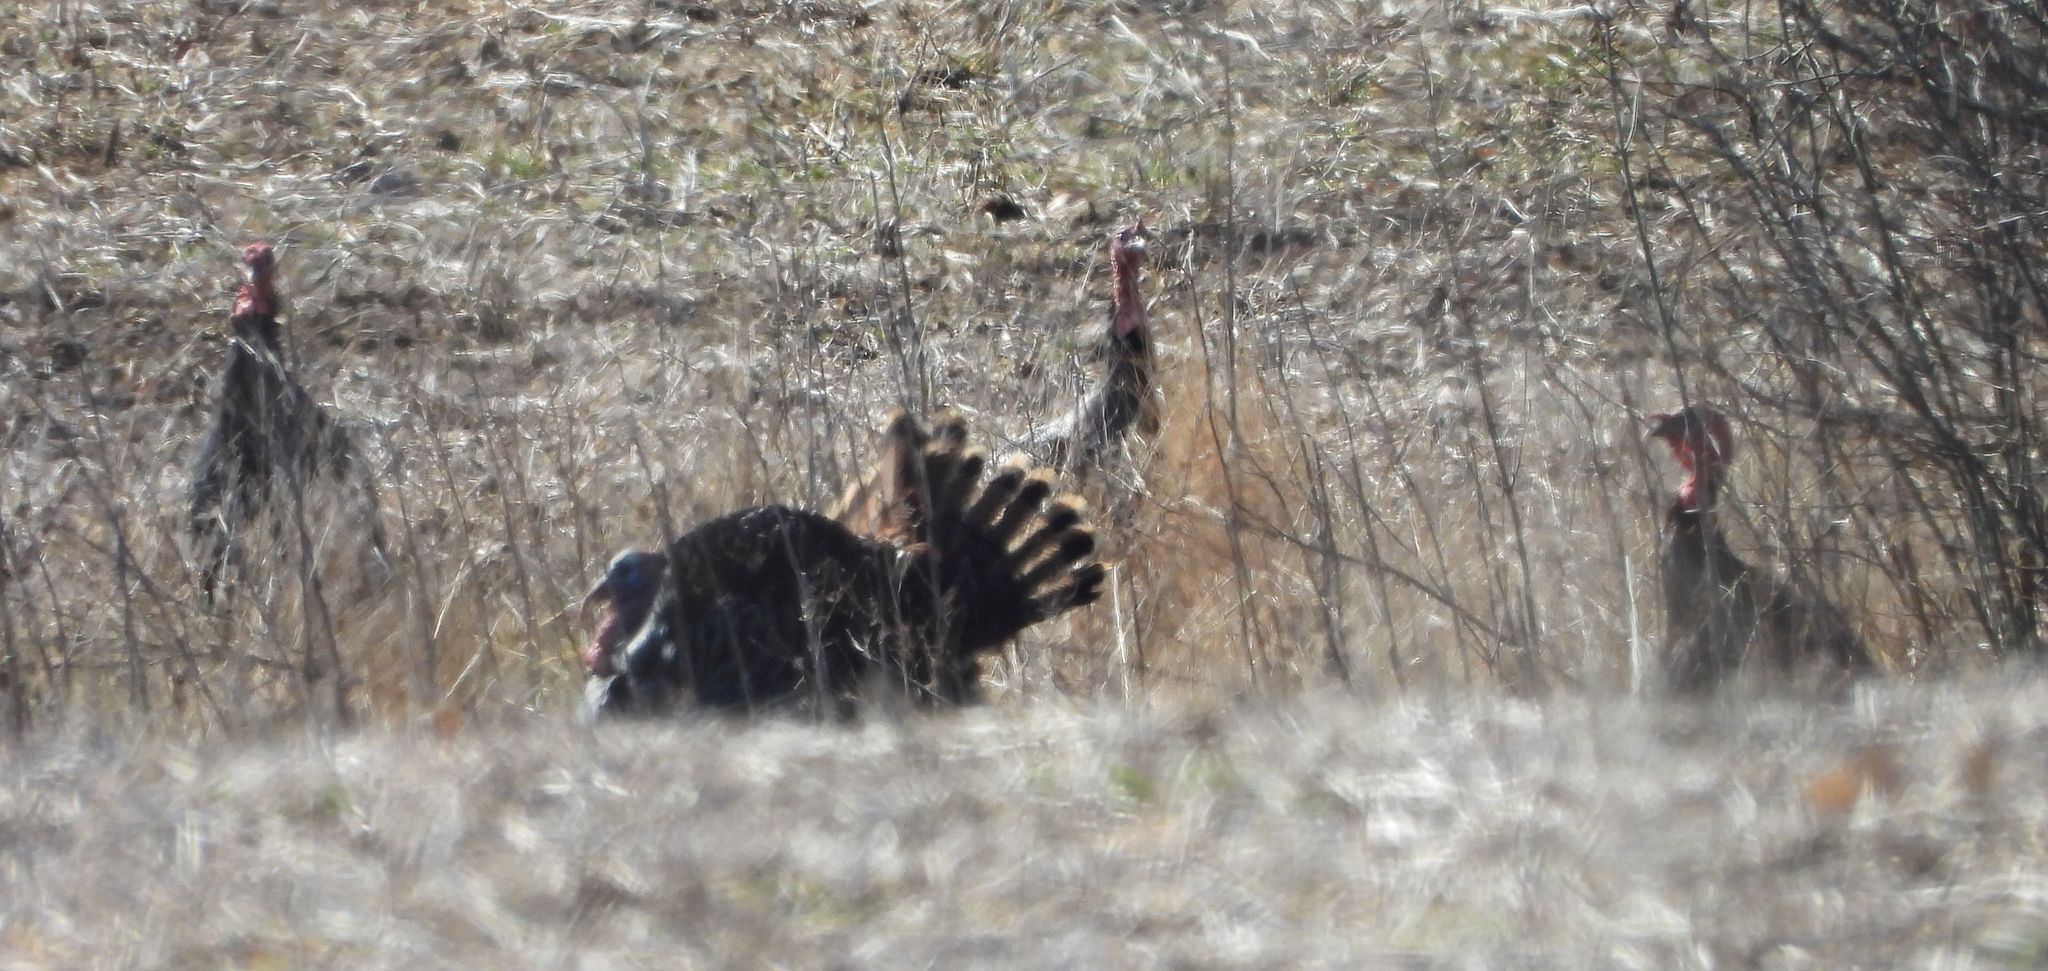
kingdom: Animalia
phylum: Chordata
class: Aves
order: Galliformes
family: Phasianidae
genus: Meleagris
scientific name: Meleagris gallopavo
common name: Wild turkey
